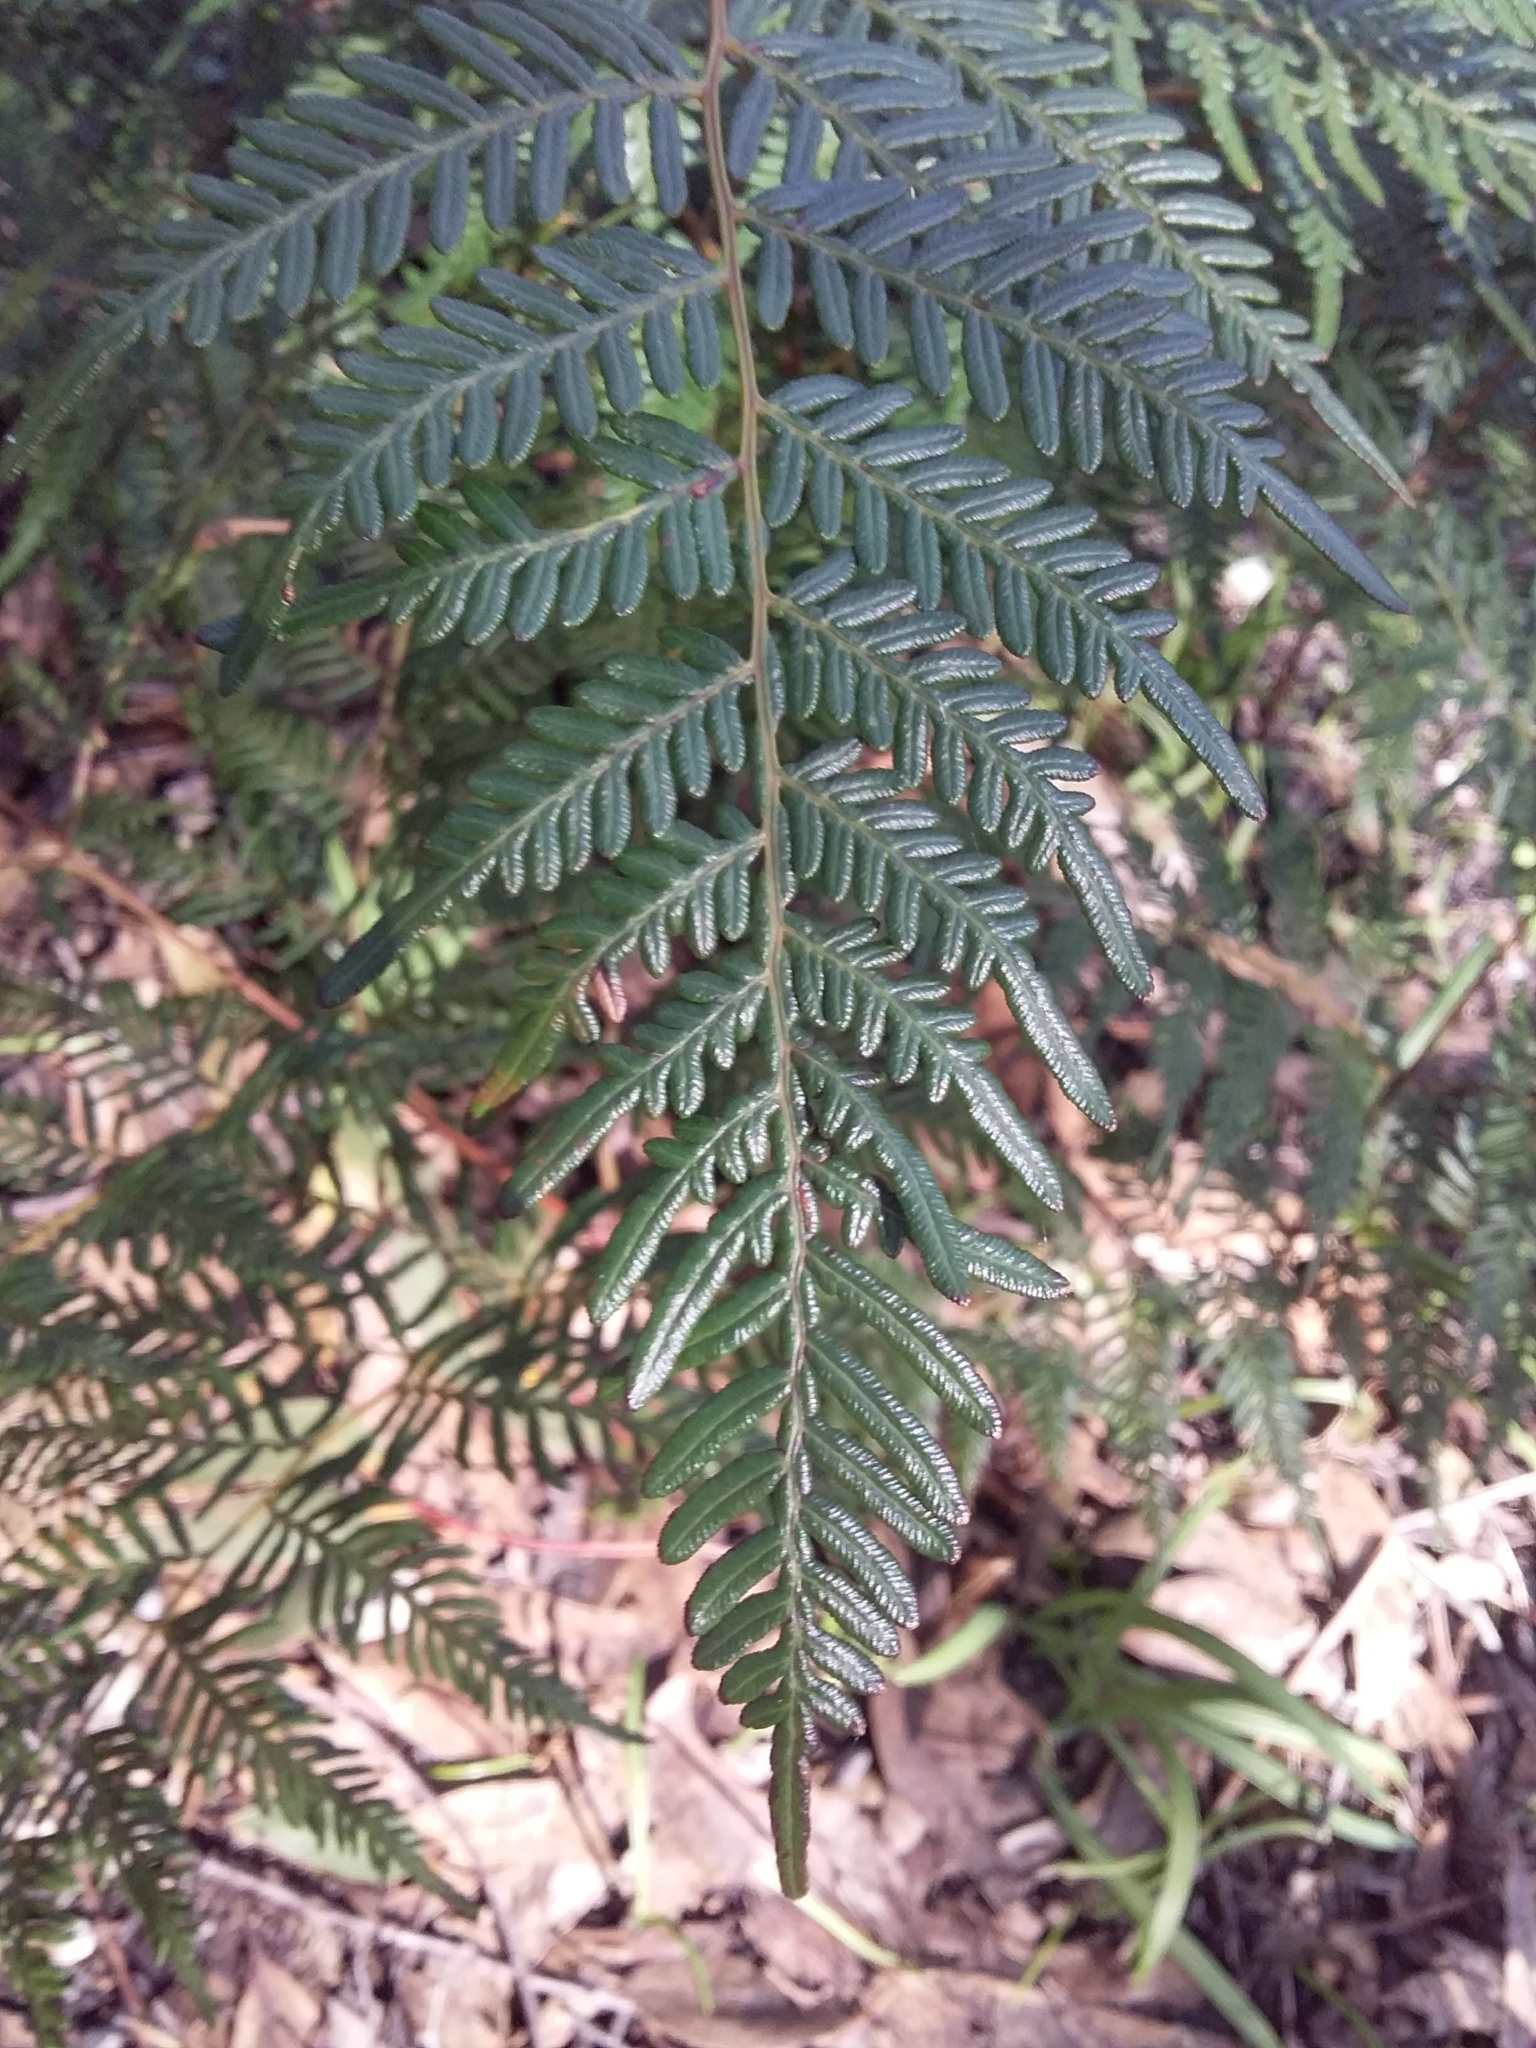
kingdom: Plantae
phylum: Tracheophyta
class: Polypodiopsida
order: Polypodiales
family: Dennstaedtiaceae
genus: Pteridium
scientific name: Pteridium esculentum
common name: Bracken fern
